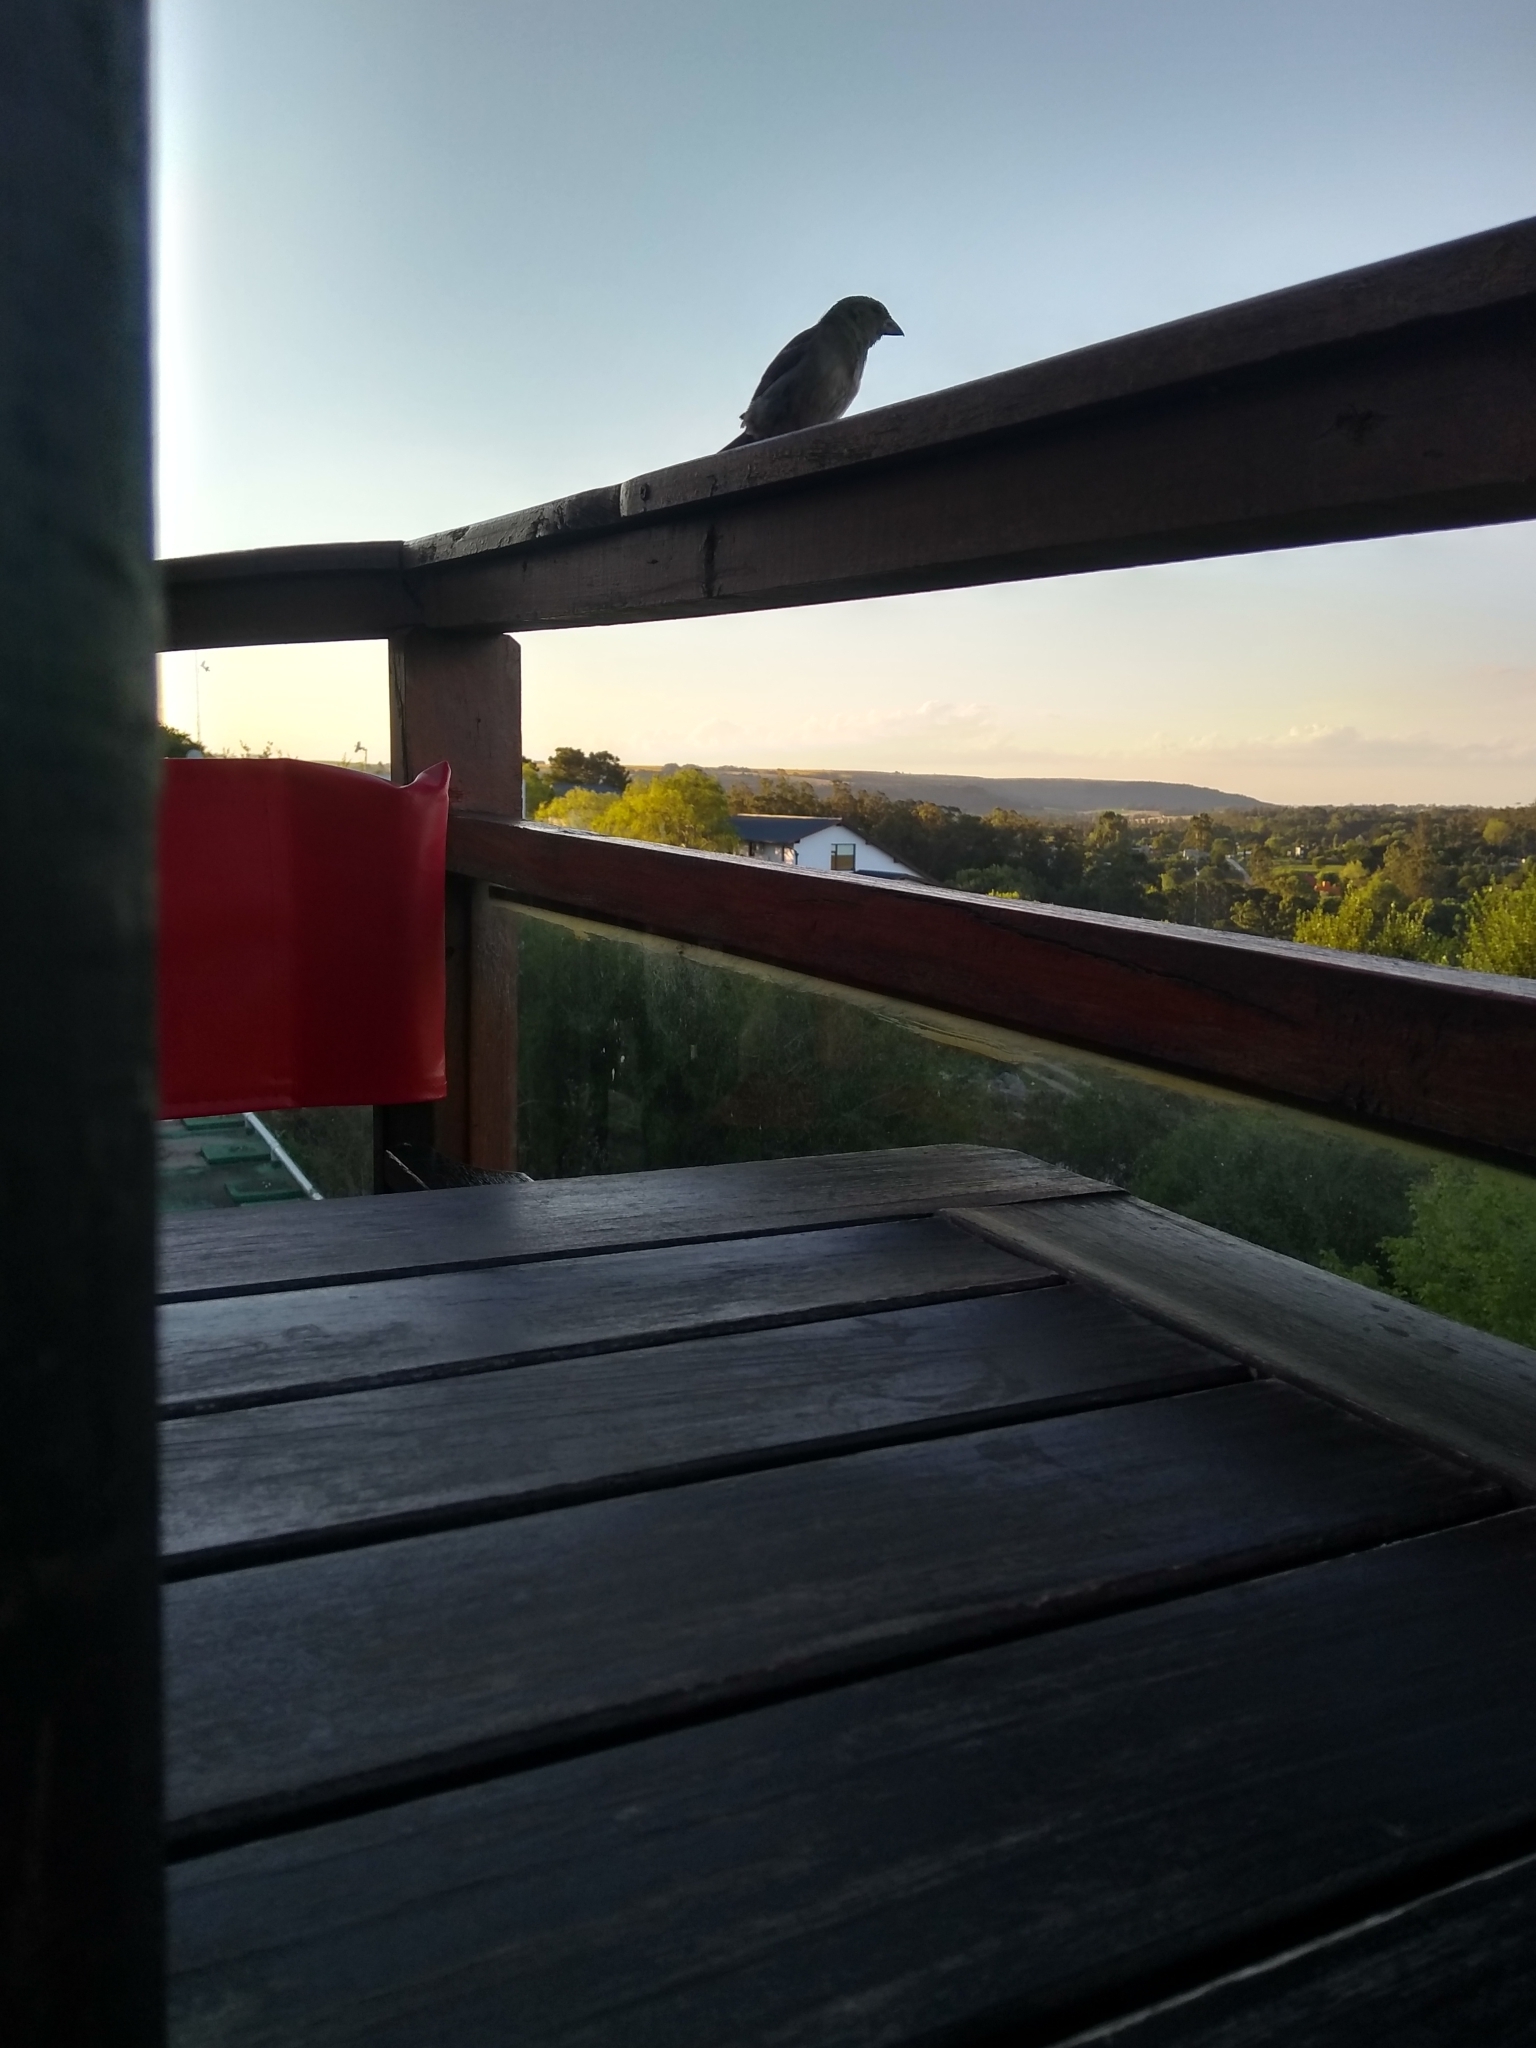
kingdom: Animalia
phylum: Chordata
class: Aves
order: Passeriformes
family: Passeridae
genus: Passer
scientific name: Passer domesticus
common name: House sparrow
